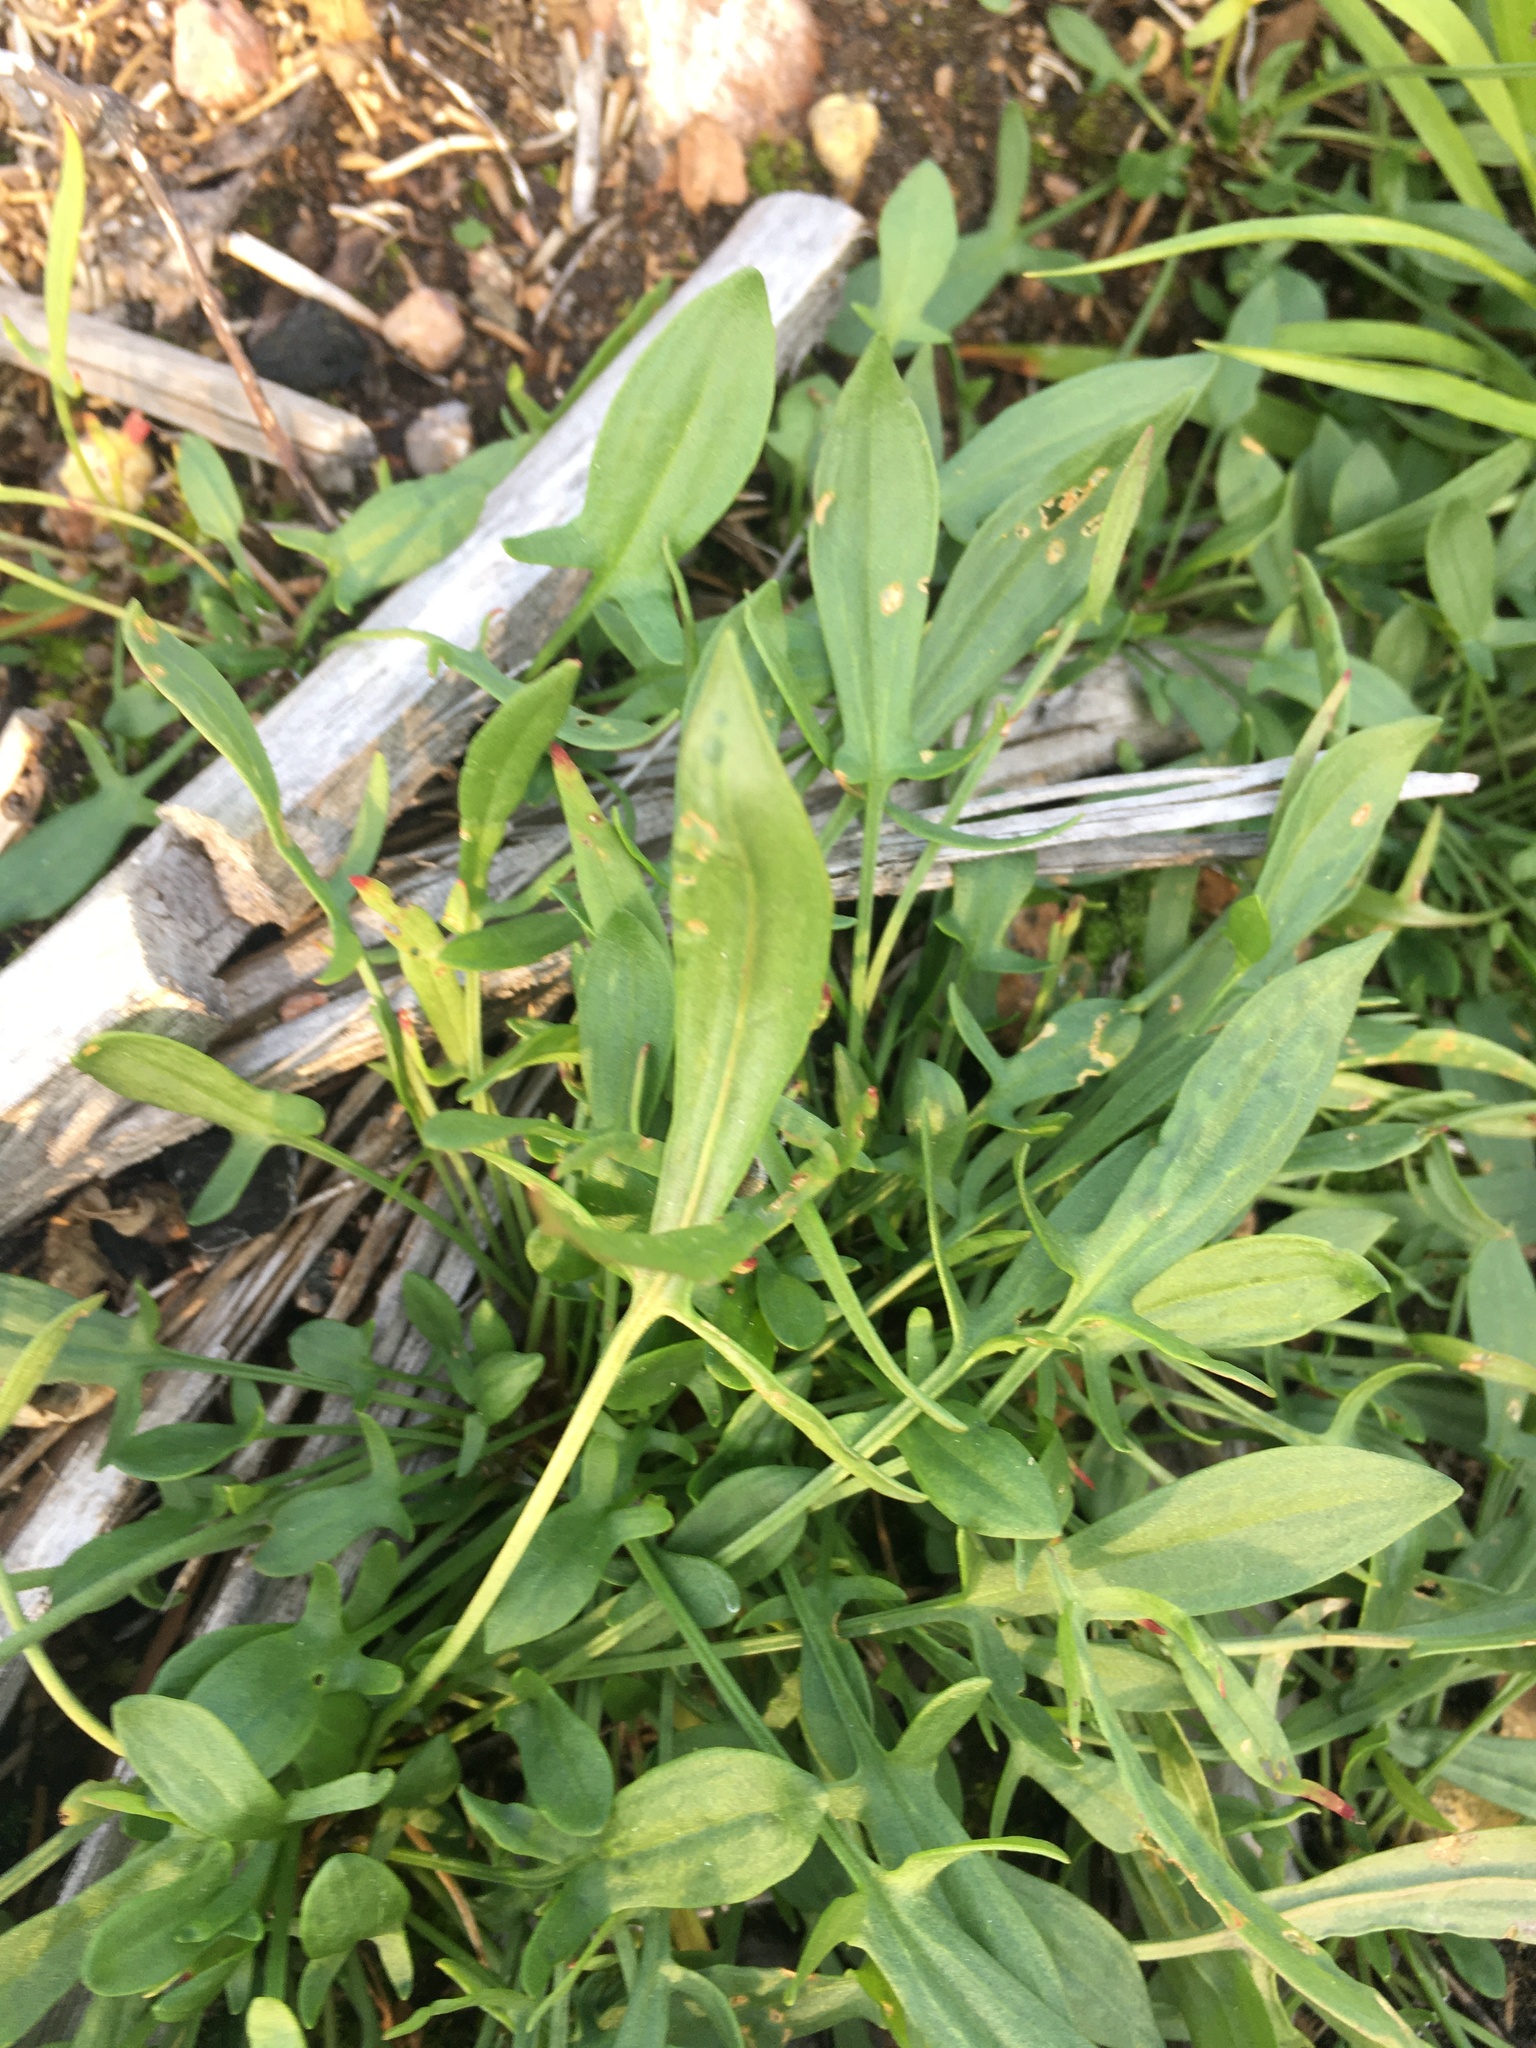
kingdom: Plantae
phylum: Tracheophyta
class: Magnoliopsida
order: Caryophyllales
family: Polygonaceae
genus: Rumex
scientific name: Rumex acetosella
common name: Common sheep sorrel
